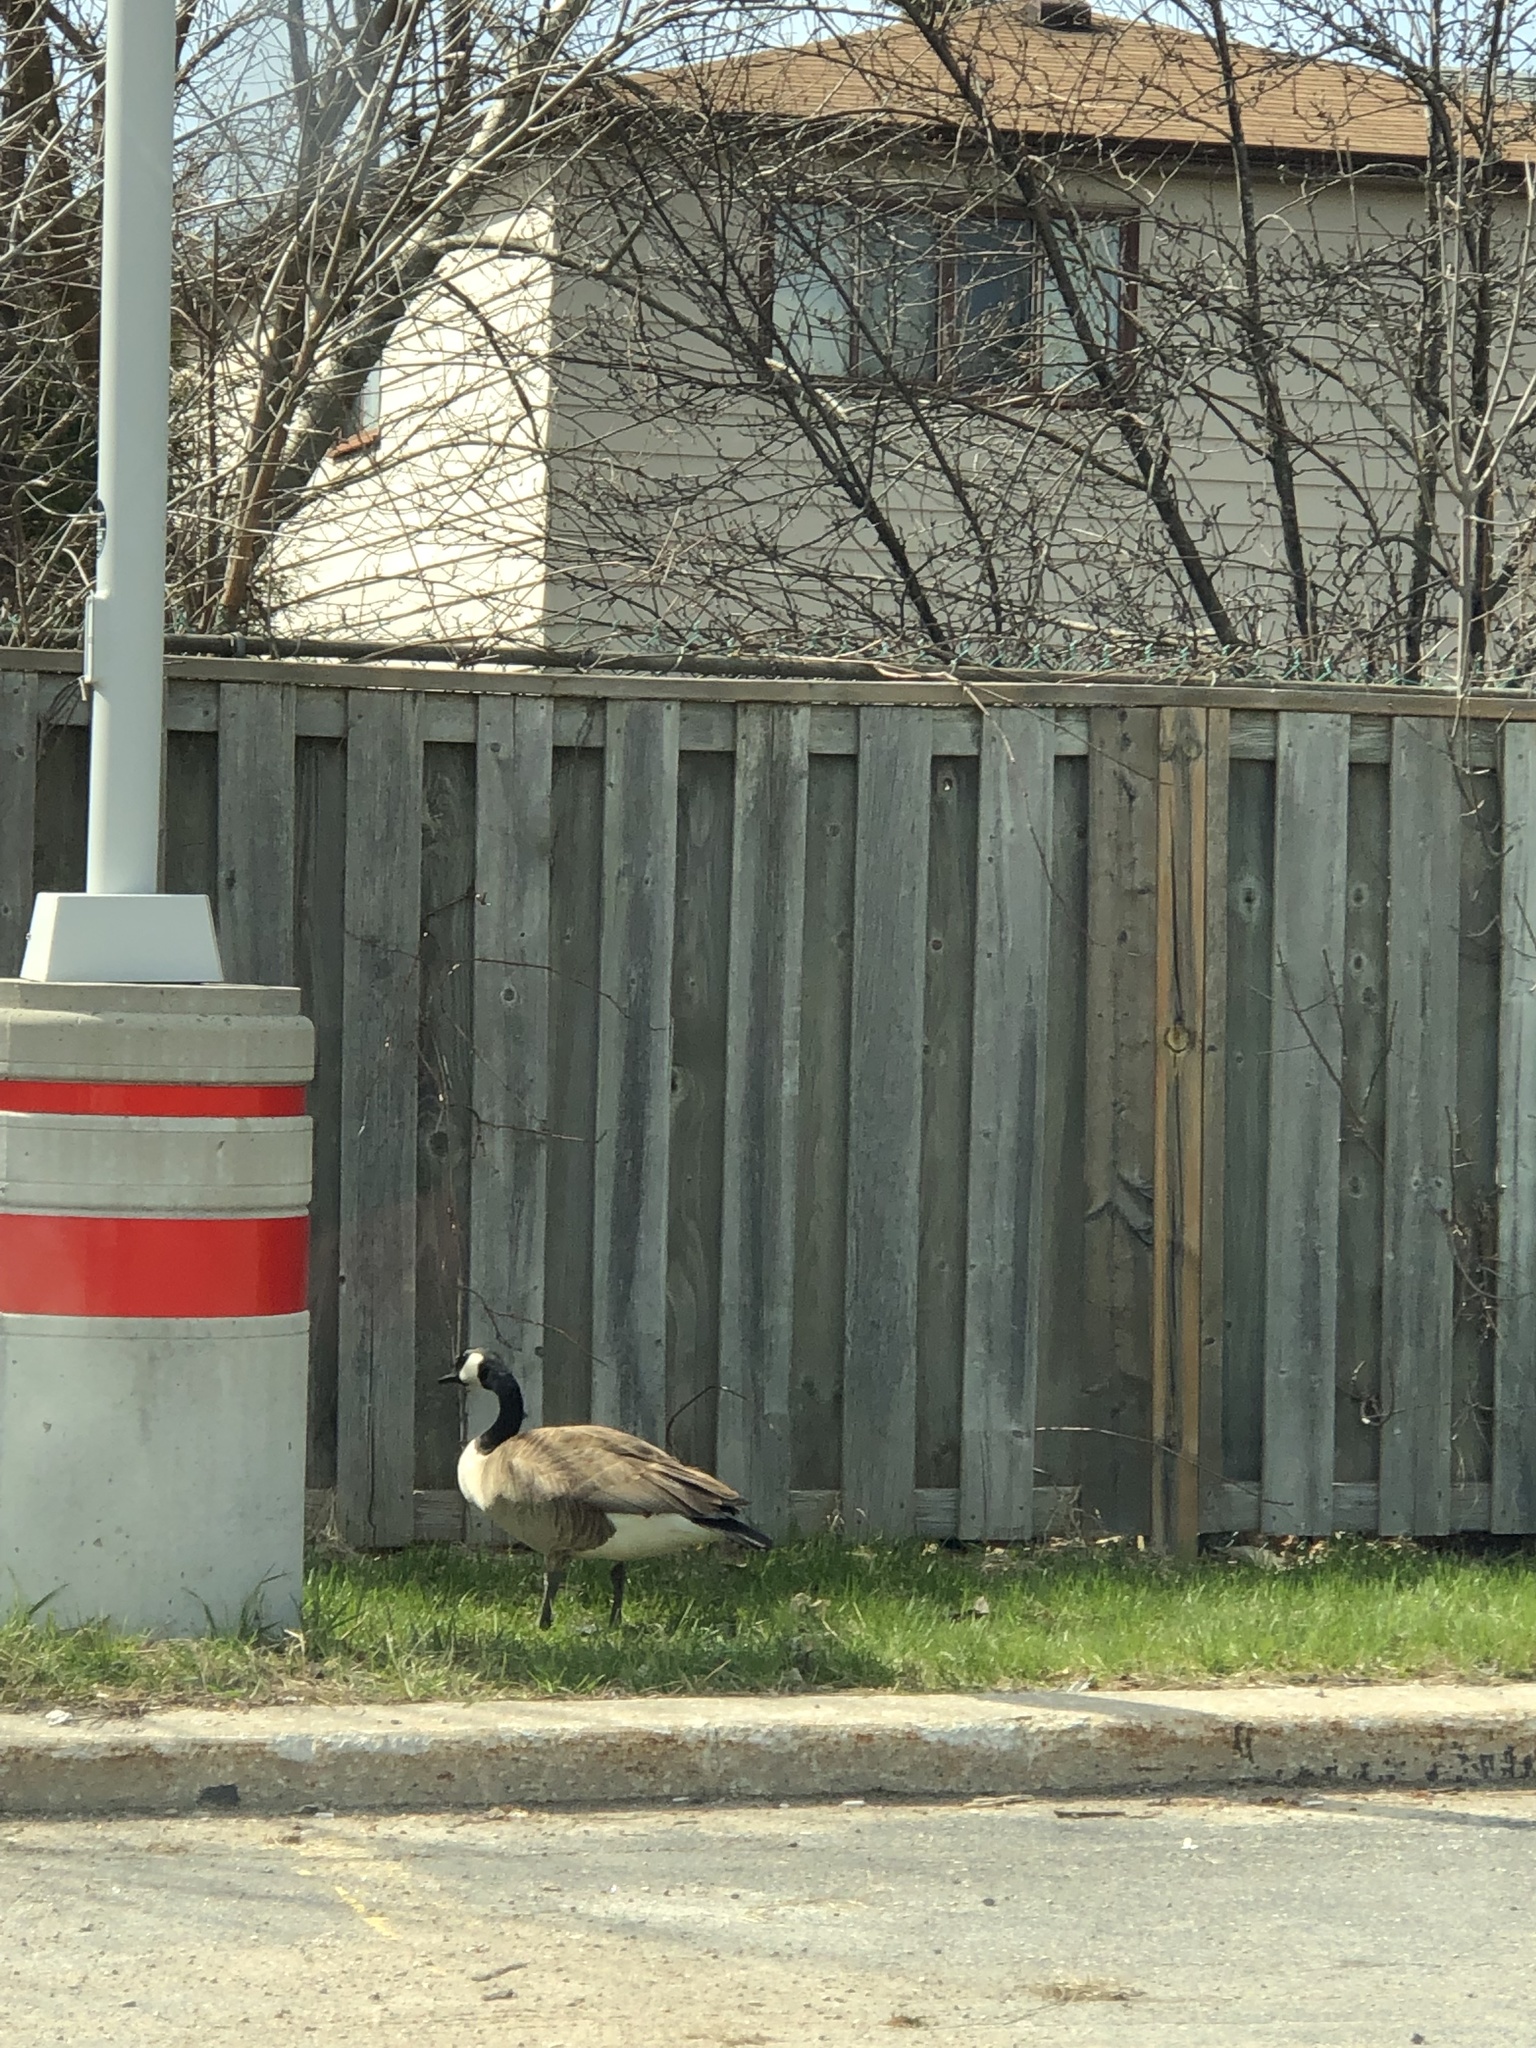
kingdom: Animalia
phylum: Chordata
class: Aves
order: Anseriformes
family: Anatidae
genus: Branta
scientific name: Branta canadensis
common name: Canada goose
